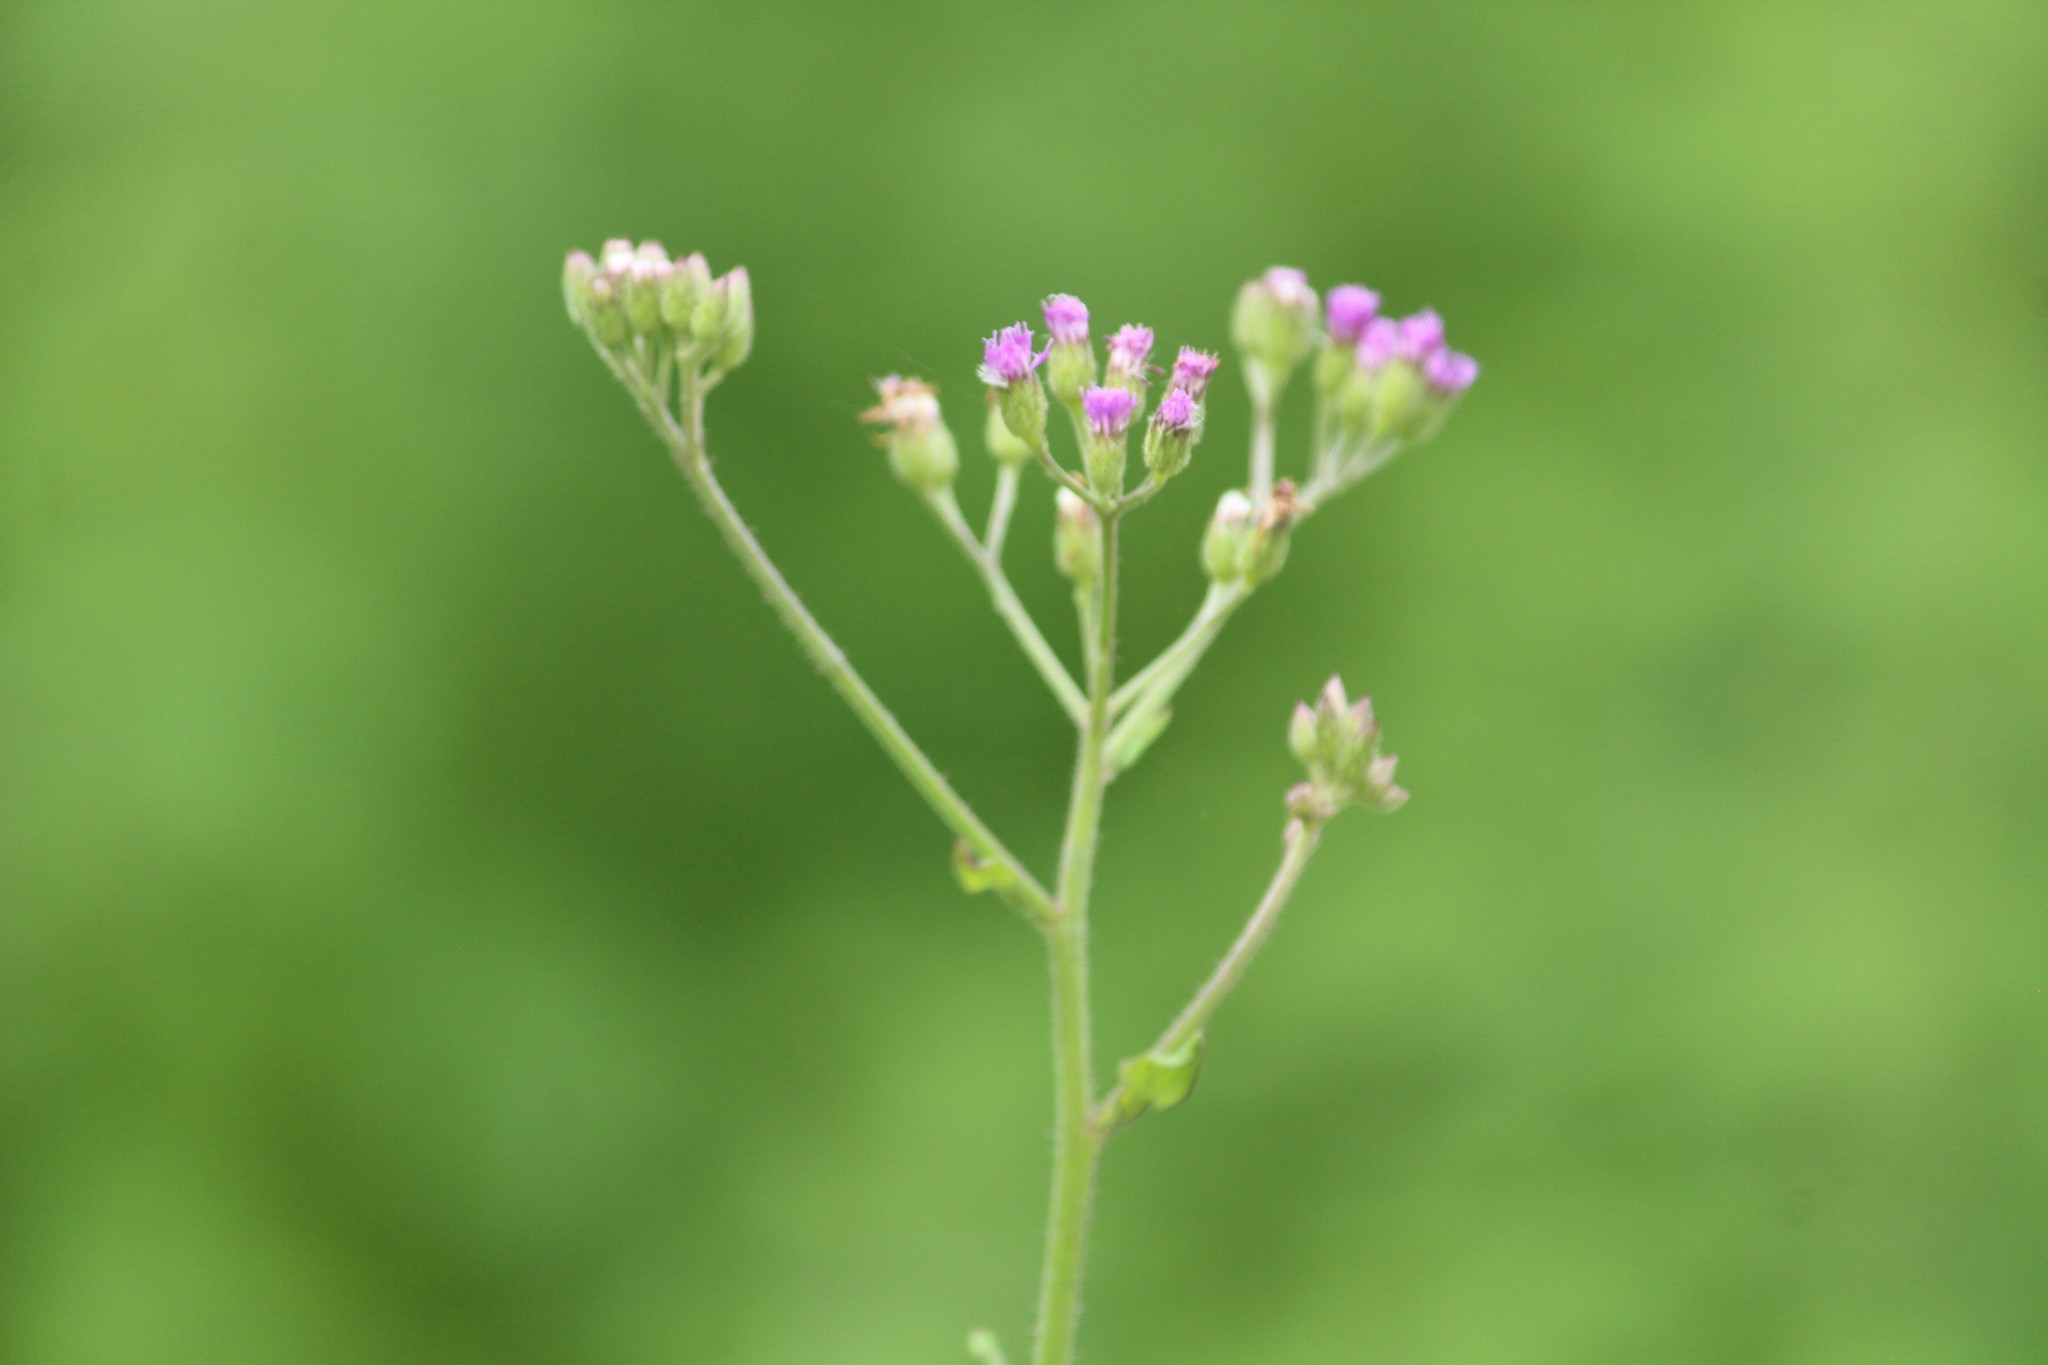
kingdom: Plantae
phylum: Tracheophyta
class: Magnoliopsida
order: Asterales
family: Asteraceae
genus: Cyanthillium
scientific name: Cyanthillium cinereum
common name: Little ironweed
